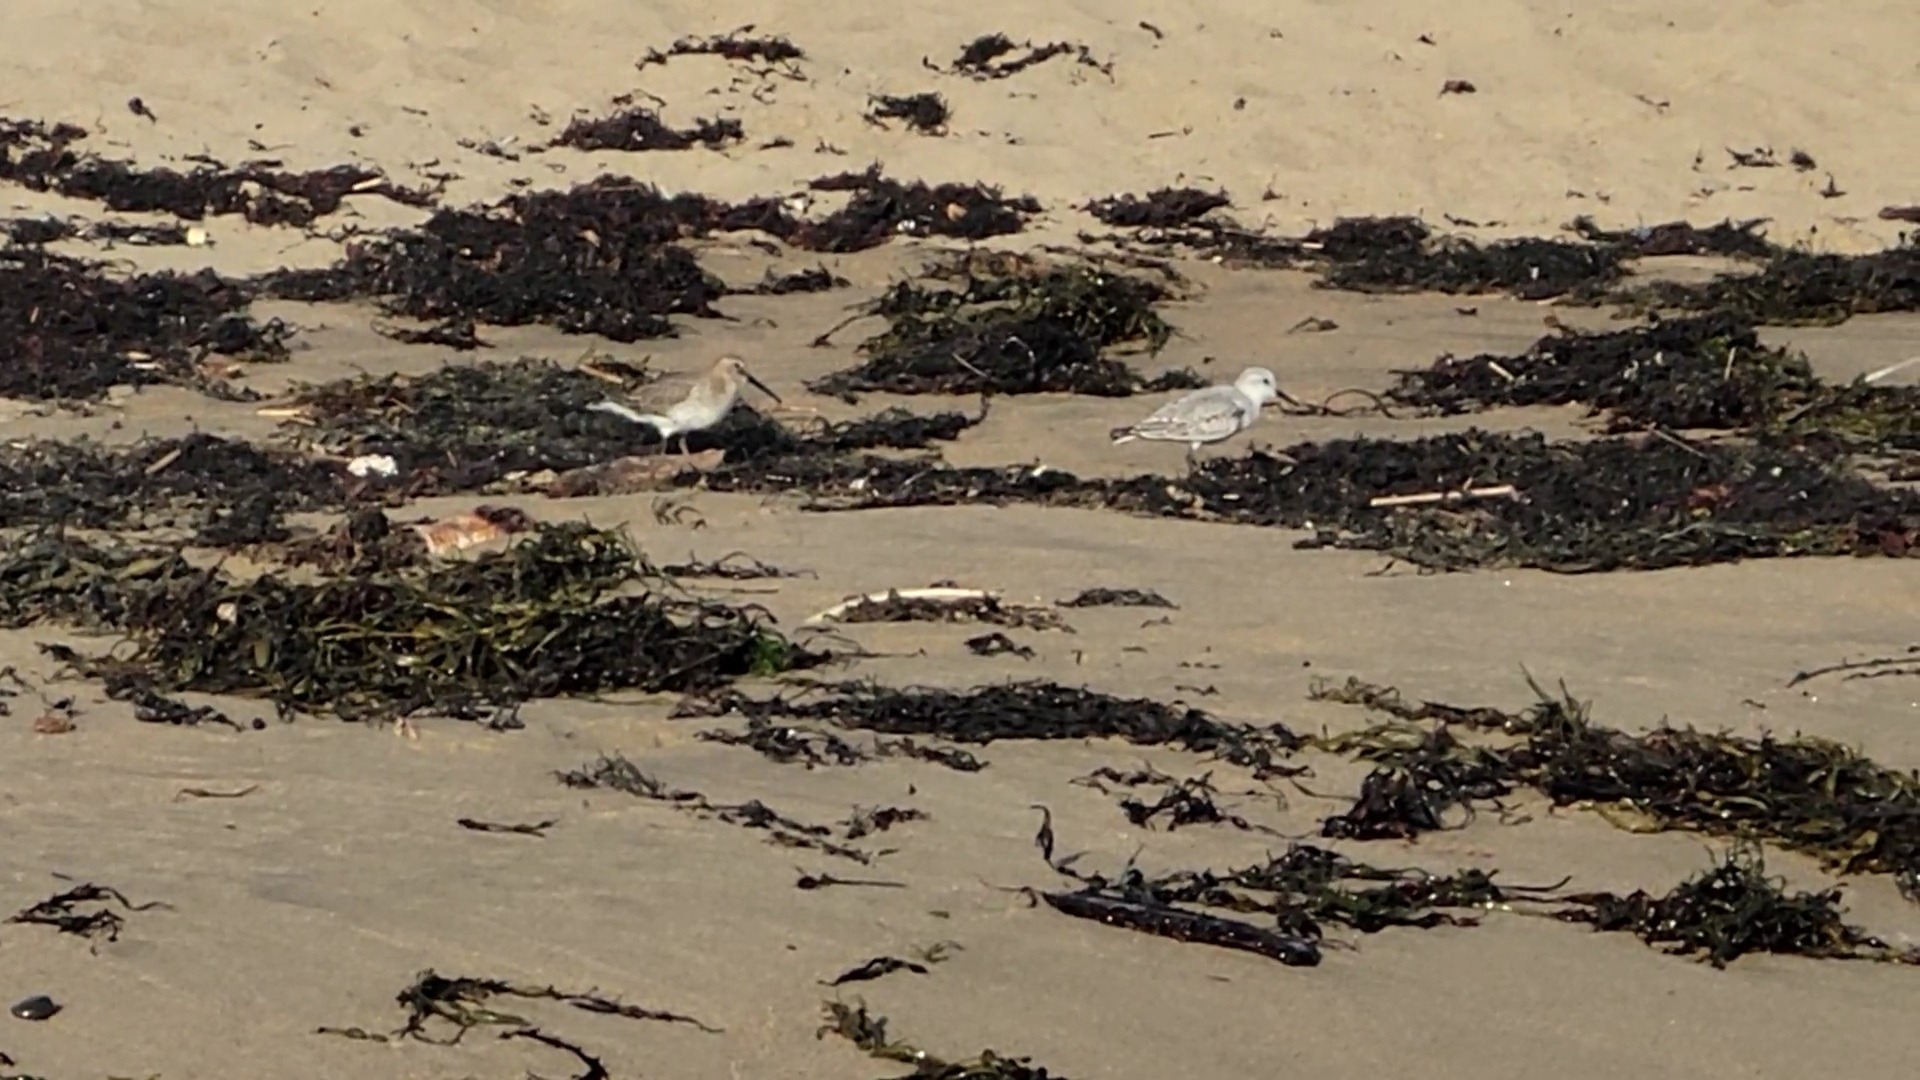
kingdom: Animalia
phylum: Chordata
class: Aves
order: Charadriiformes
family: Scolopacidae
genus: Calidris
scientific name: Calidris alba
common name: Sanderling
